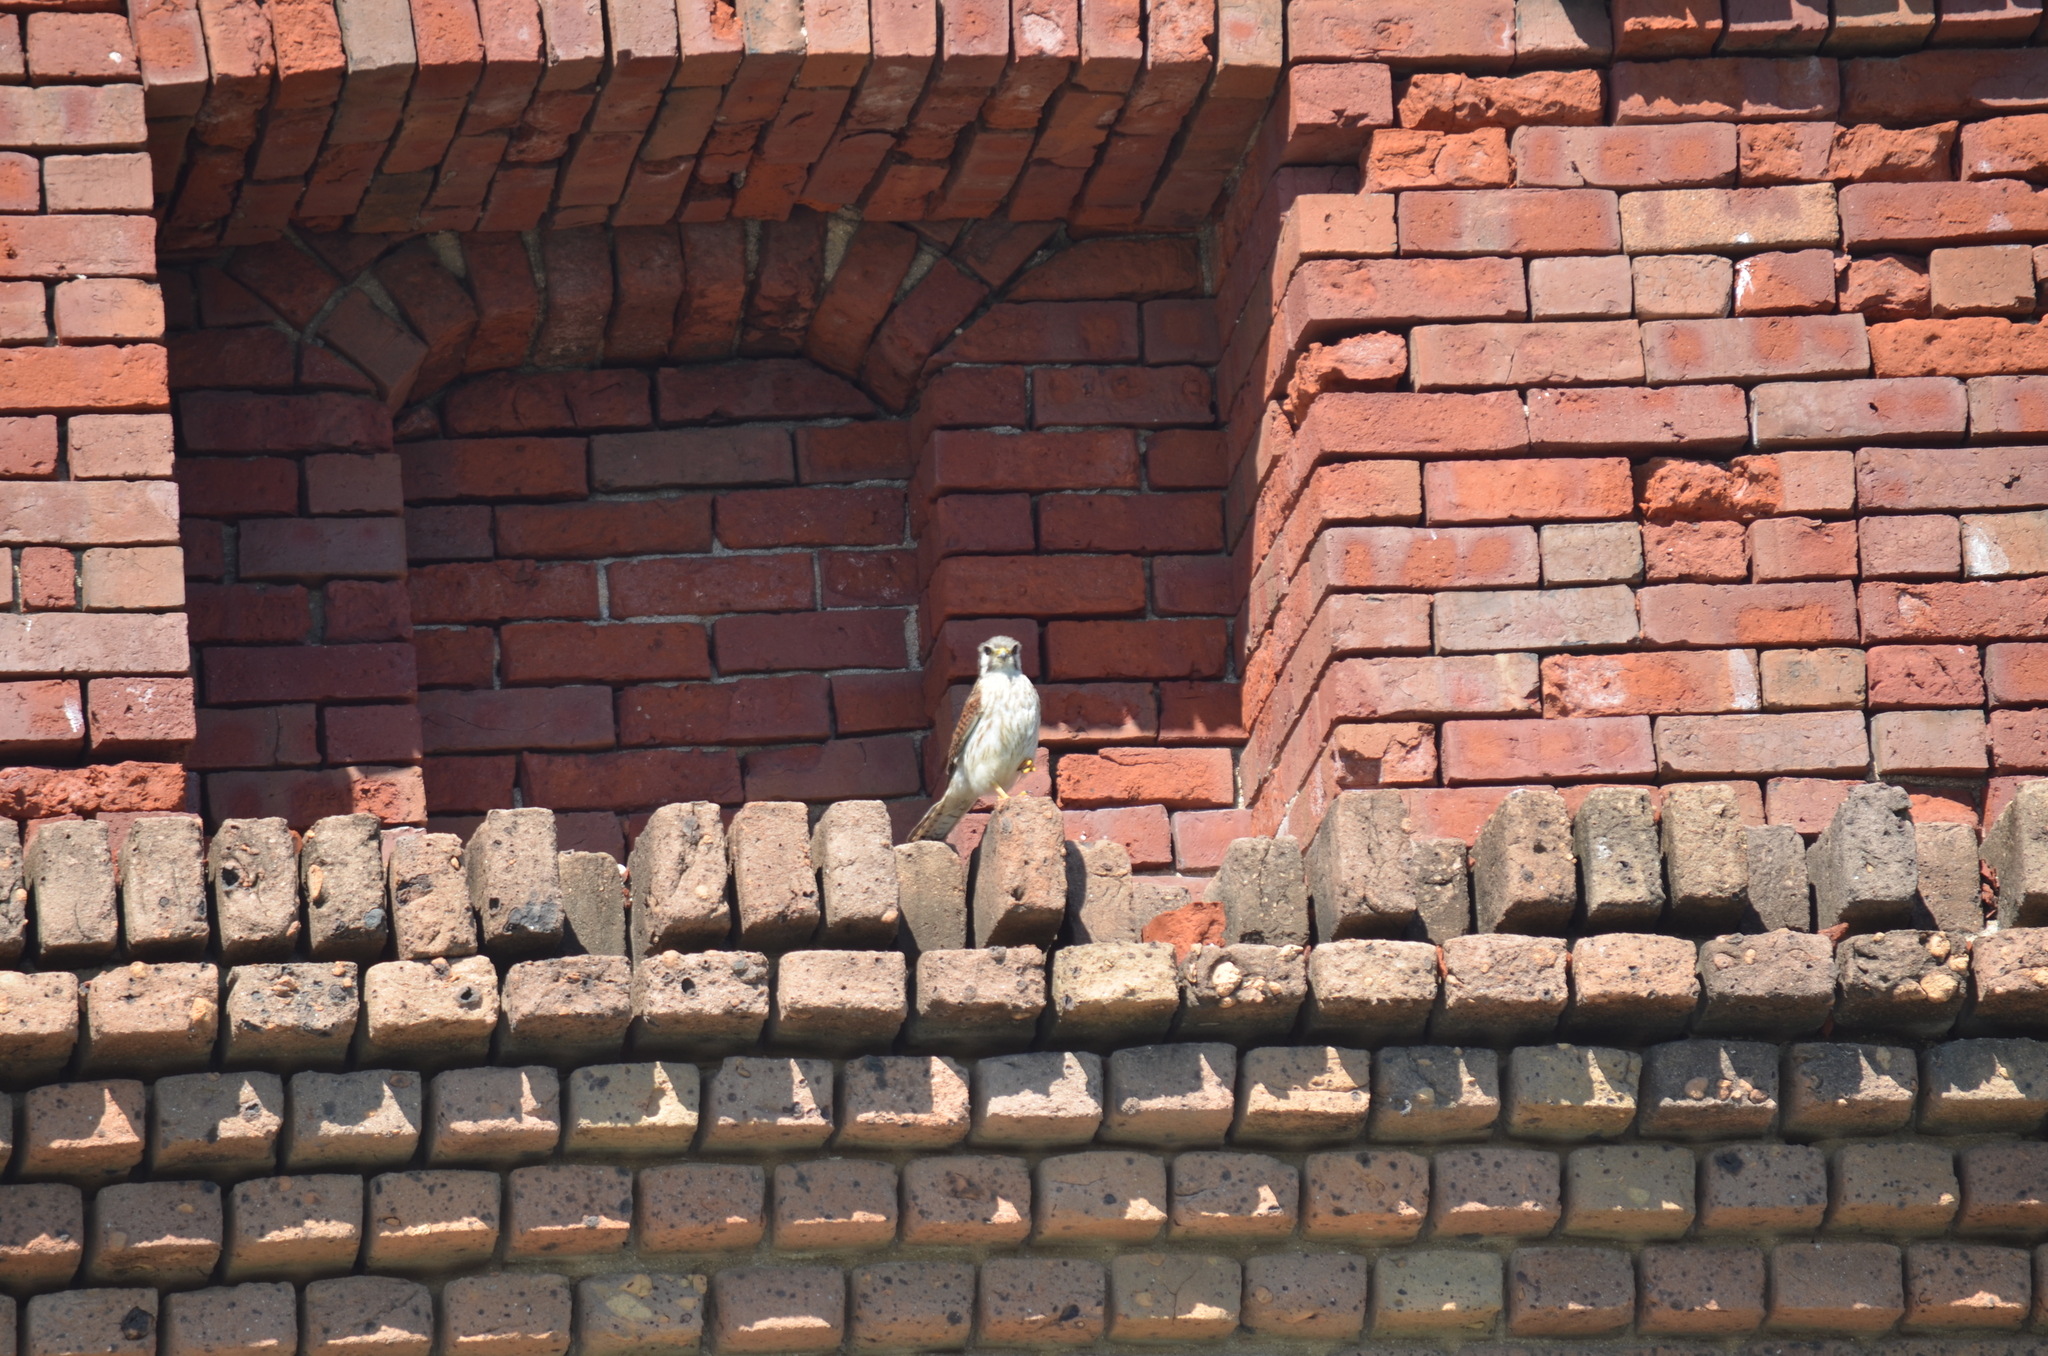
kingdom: Animalia
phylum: Chordata
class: Aves
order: Falconiformes
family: Falconidae
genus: Falco
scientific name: Falco sparverius
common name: American kestrel
